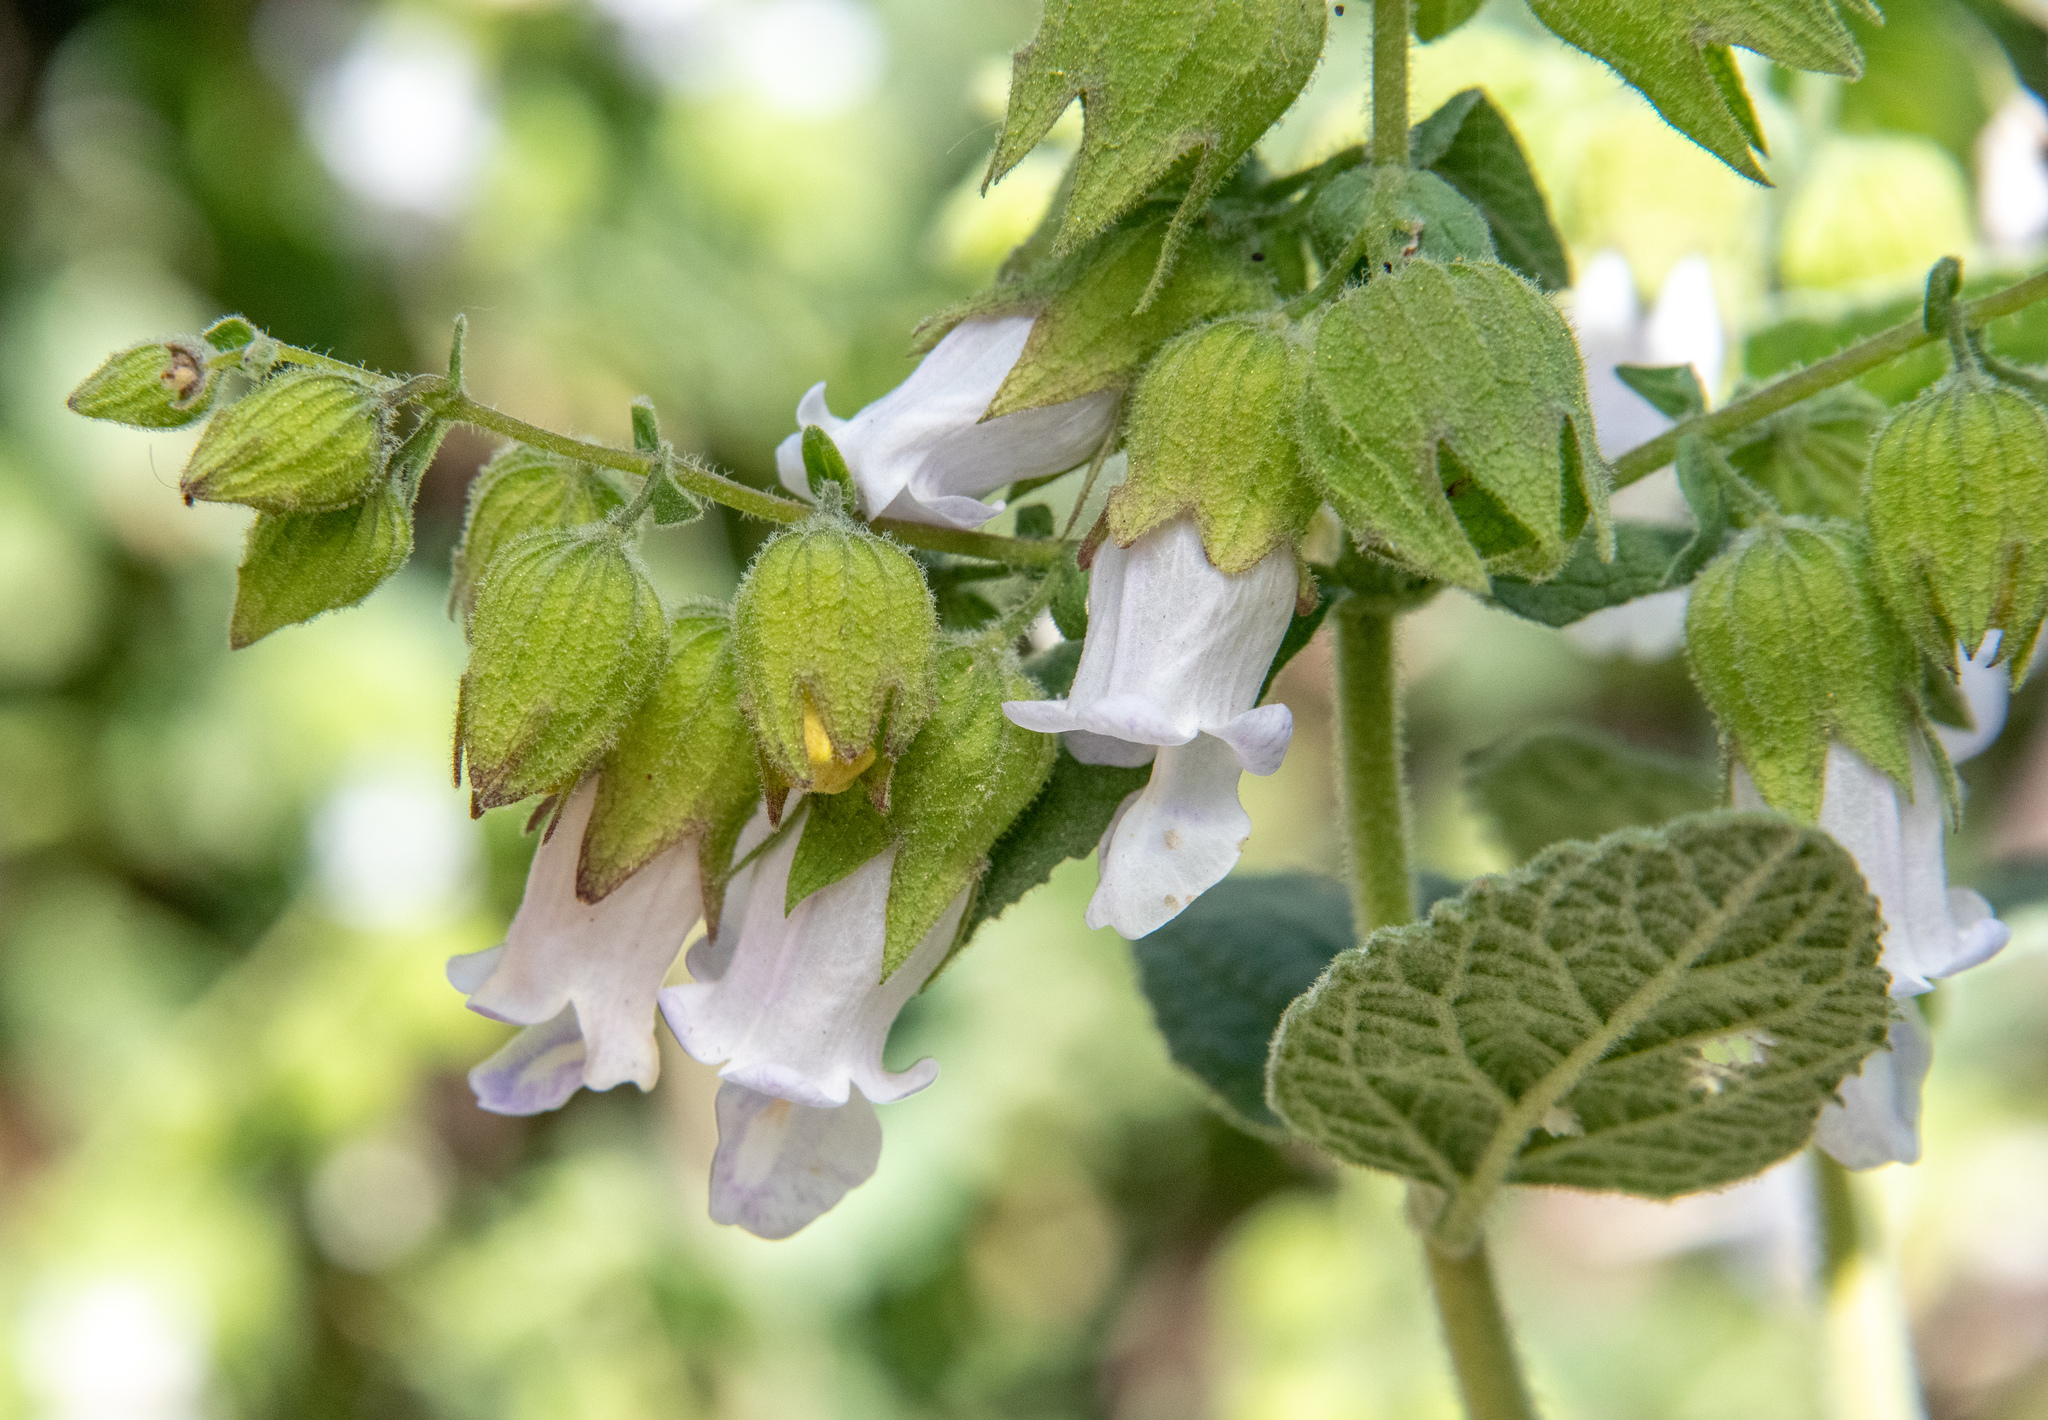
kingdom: Plantae
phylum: Tracheophyta
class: Magnoliopsida
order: Lamiales
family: Lamiaceae
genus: Lepechinia
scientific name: Lepechinia calycina
